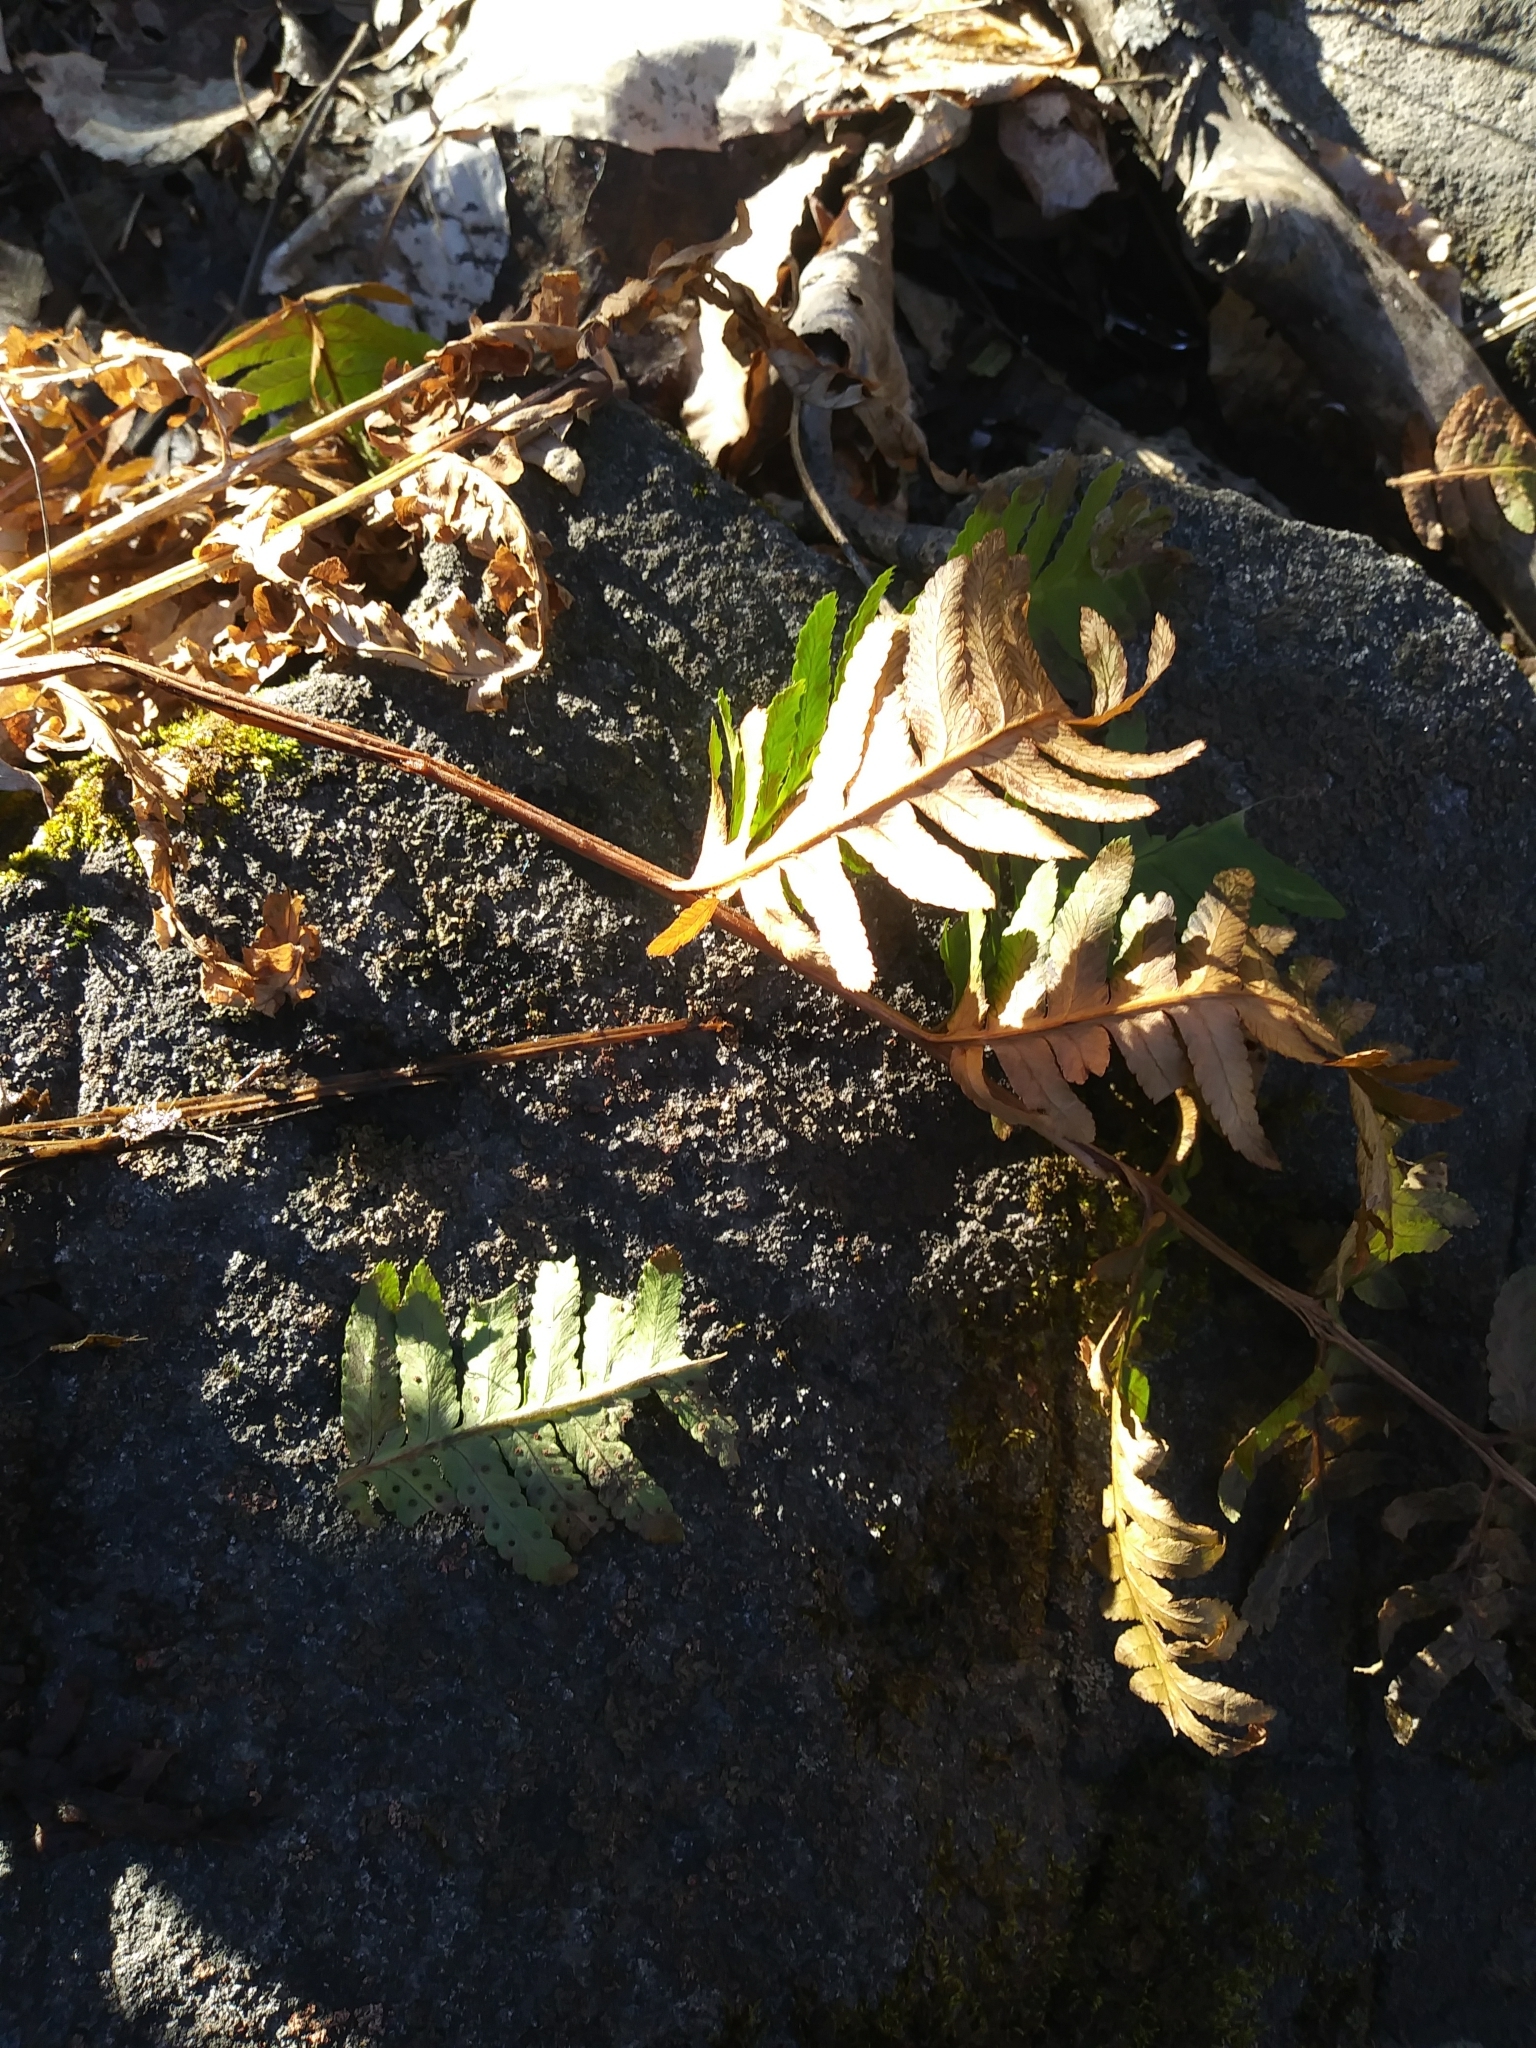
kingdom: Plantae
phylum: Tracheophyta
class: Polypodiopsida
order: Polypodiales
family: Dryopteridaceae
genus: Dryopteris
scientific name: Dryopteris goldieana
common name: Goldie's fern
